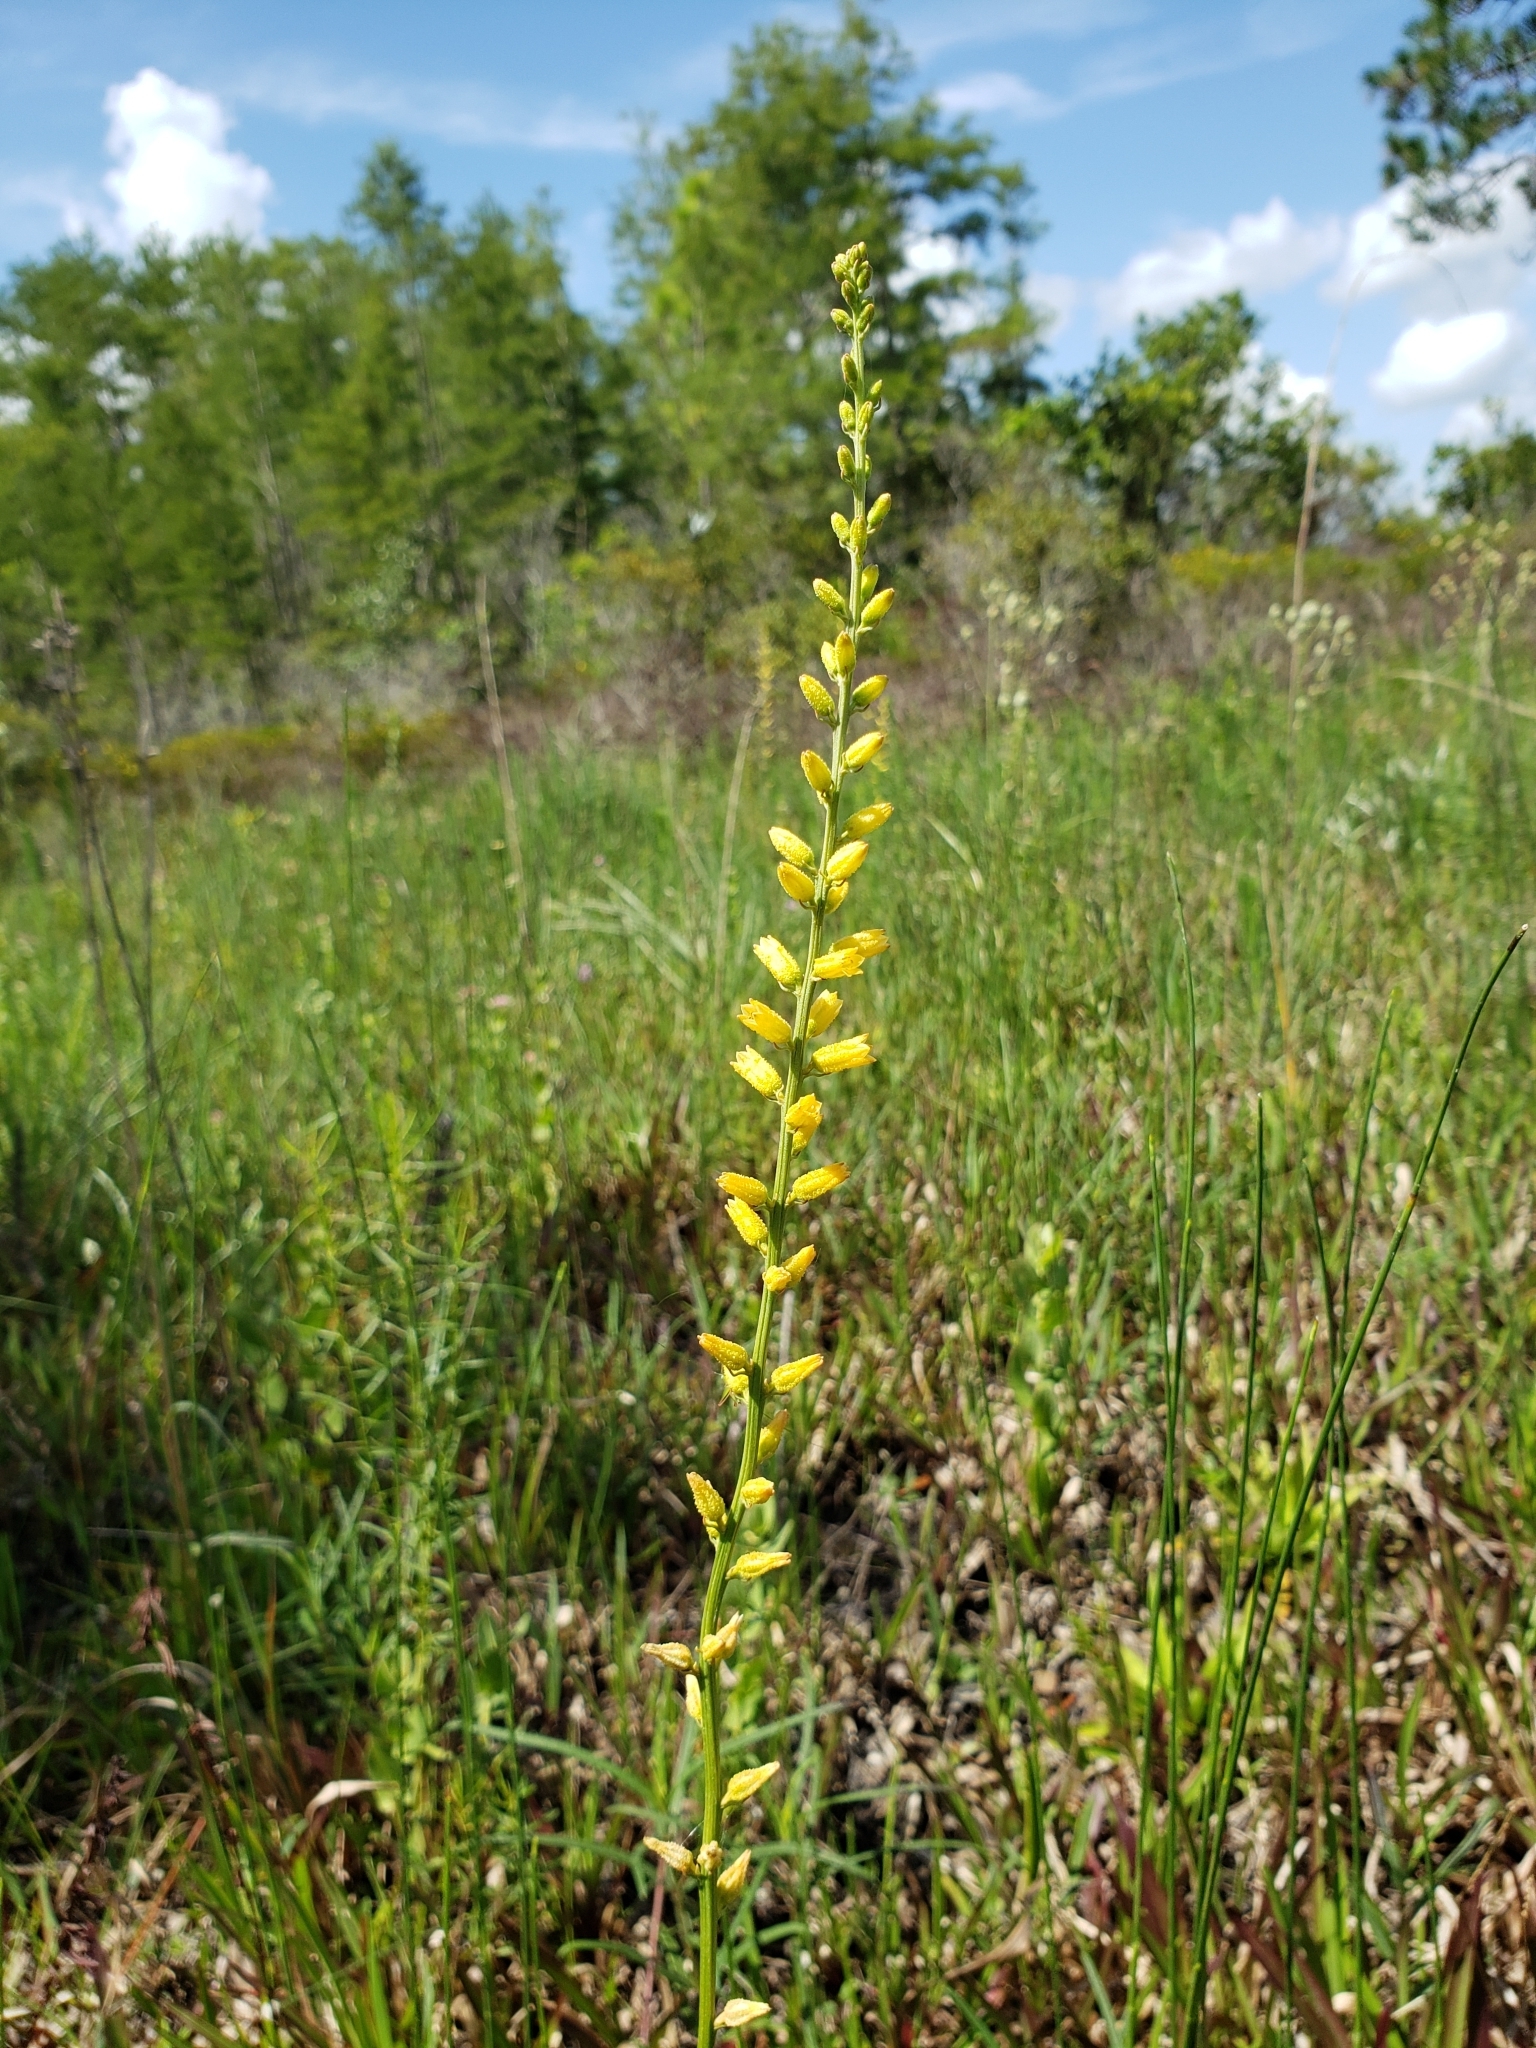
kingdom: Plantae
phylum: Tracheophyta
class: Liliopsida
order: Dioscoreales
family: Nartheciaceae
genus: Aletris
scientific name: Aletris lutea
